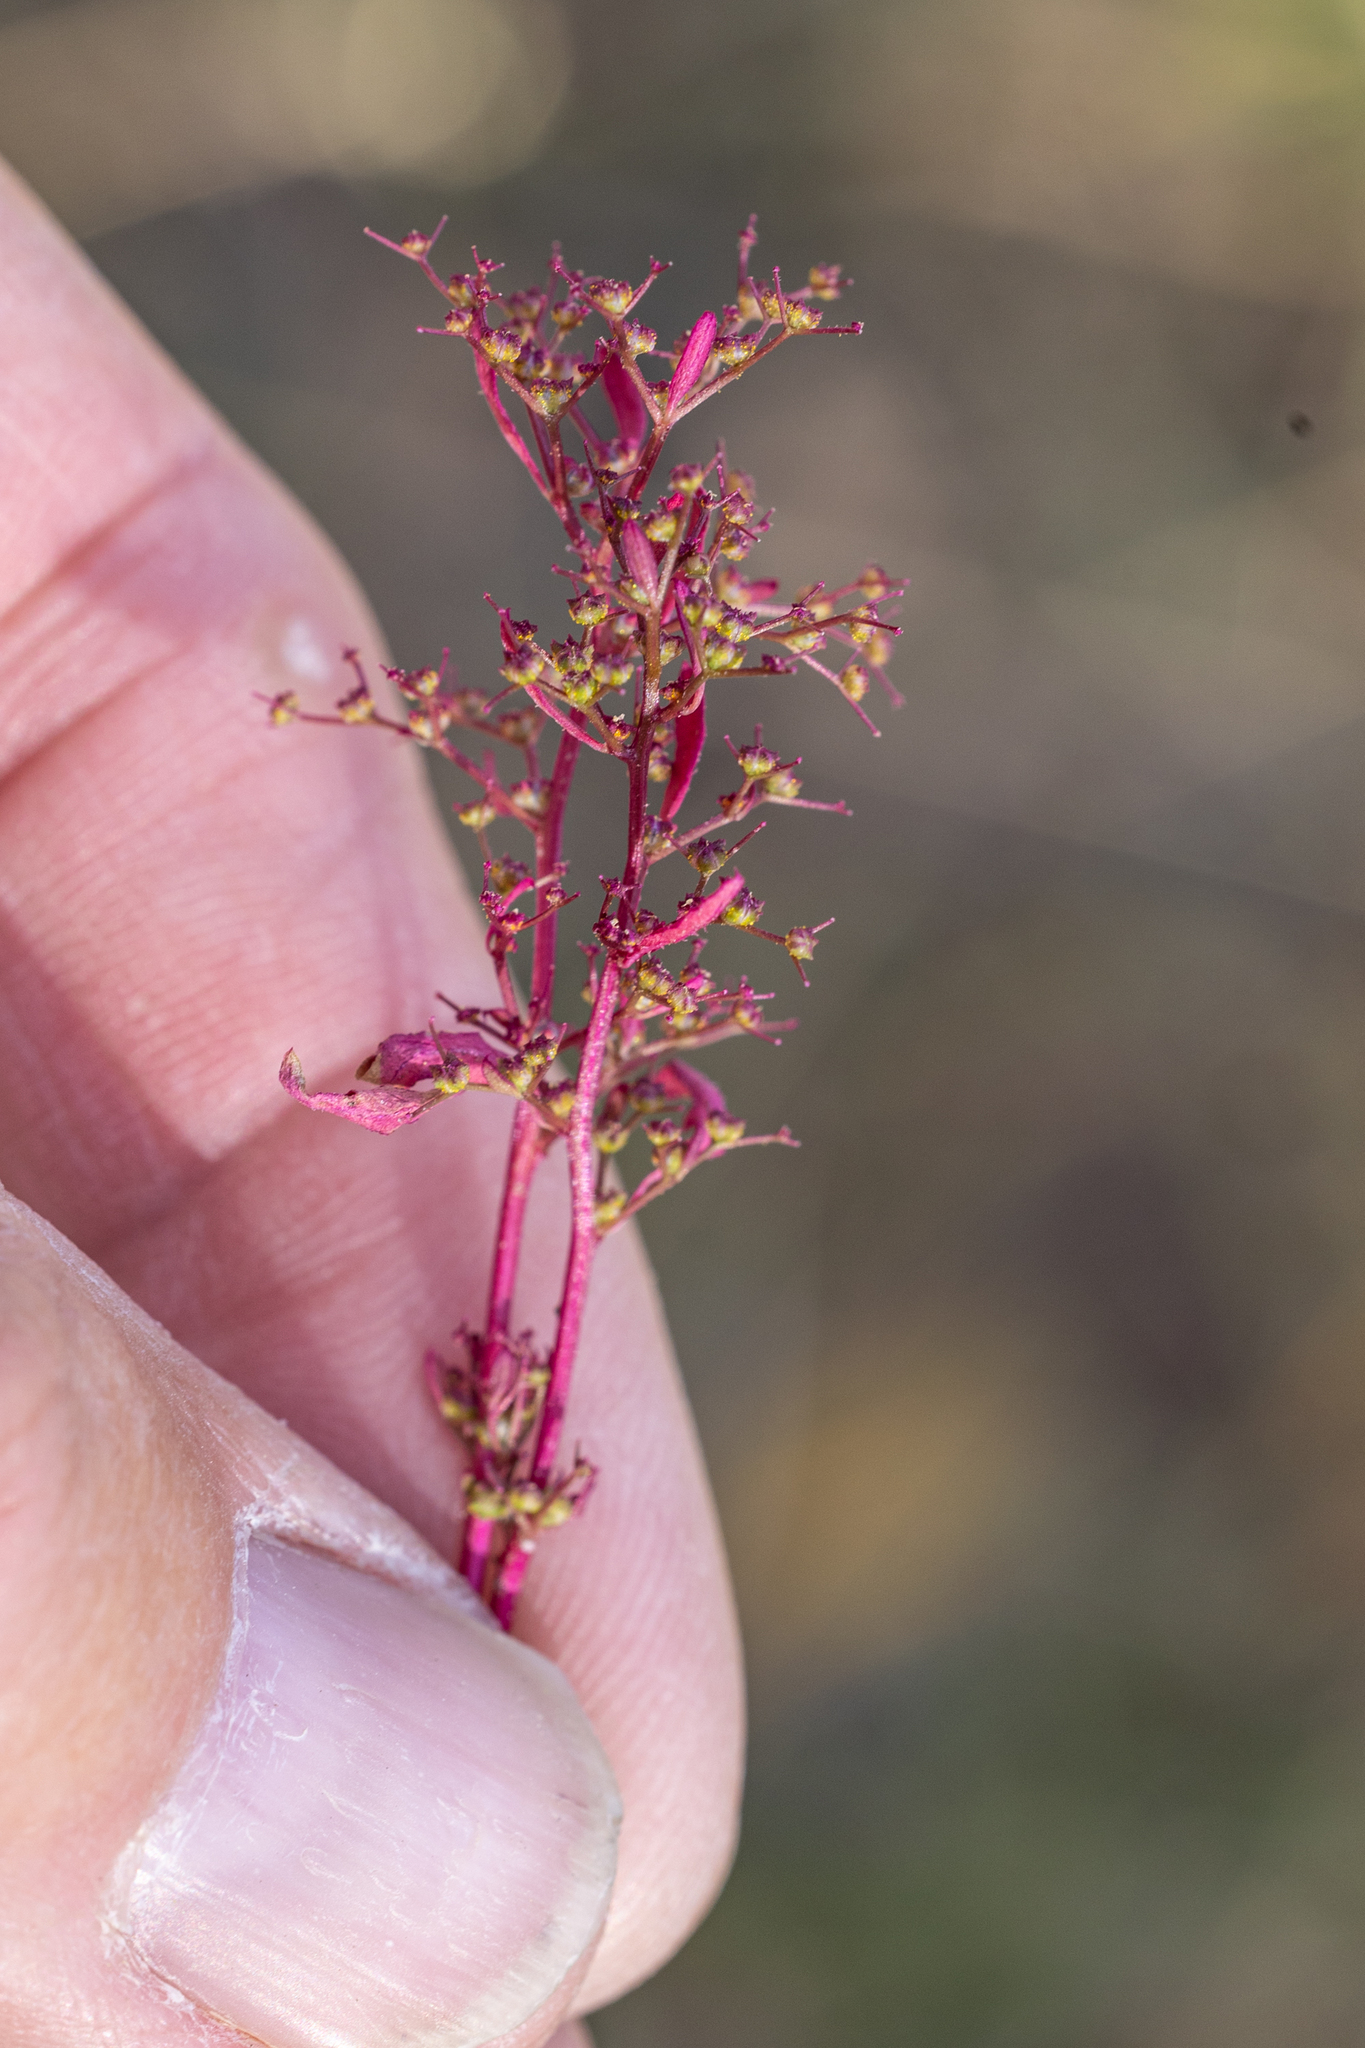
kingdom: Plantae
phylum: Tracheophyta
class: Magnoliopsida
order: Caryophyllales
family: Amaranthaceae
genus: Dysphania
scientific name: Dysphania incisa
